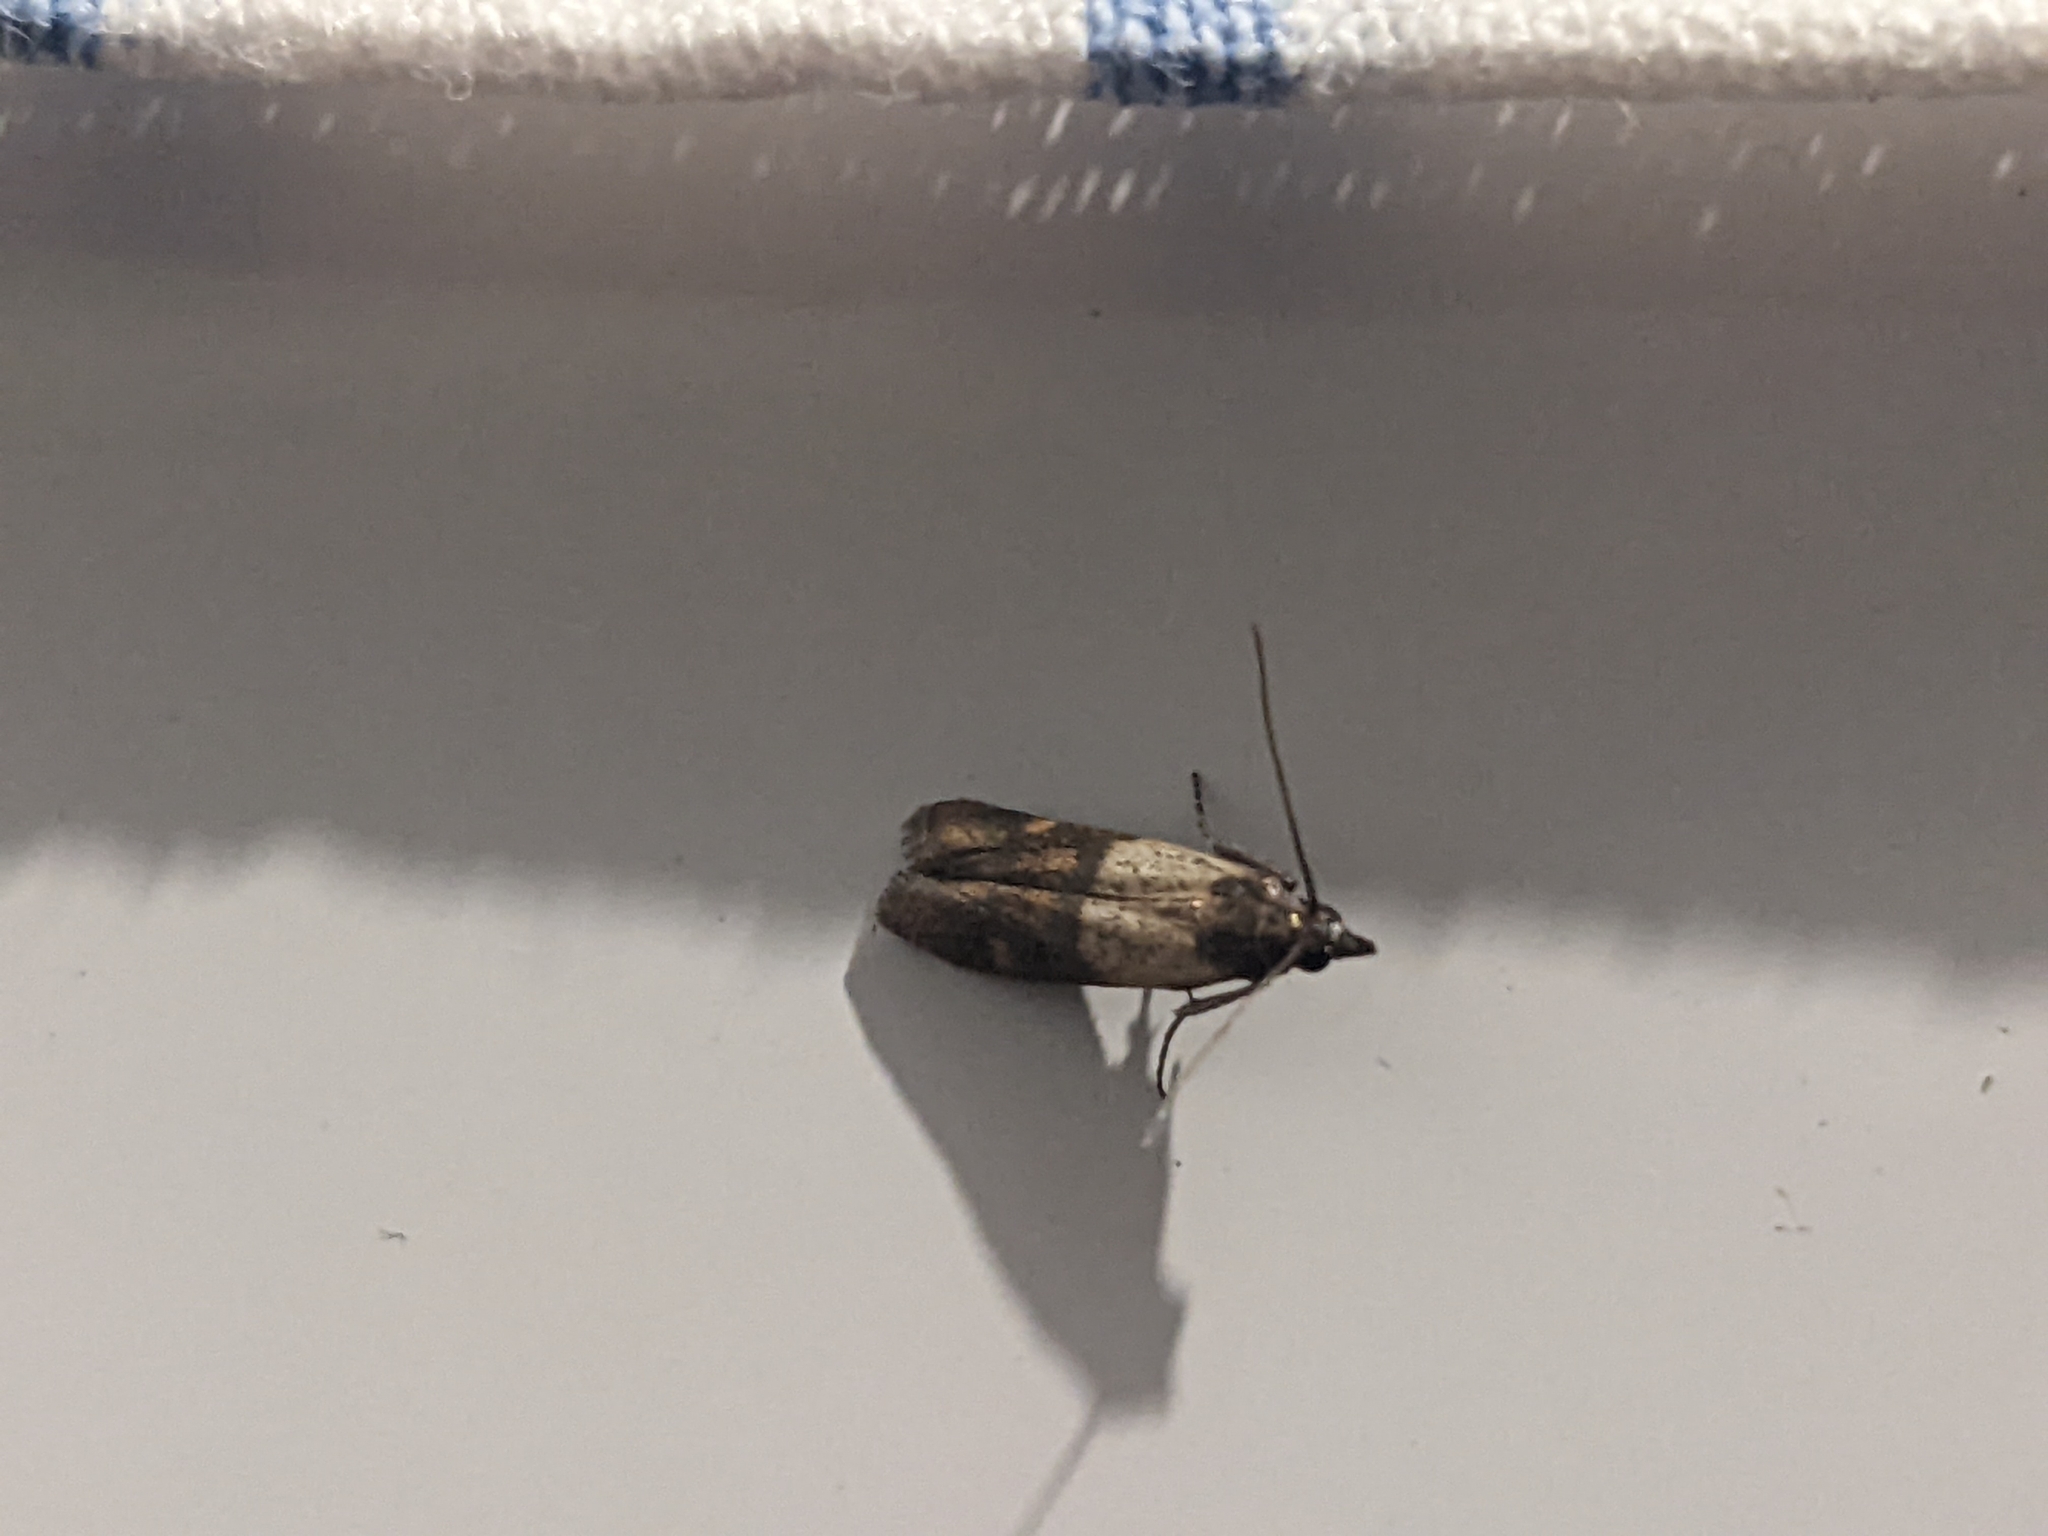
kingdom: Animalia
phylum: Arthropoda
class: Insecta
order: Lepidoptera
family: Pyralidae
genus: Plodia
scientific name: Plodia interpunctella
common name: Indian meal moth
